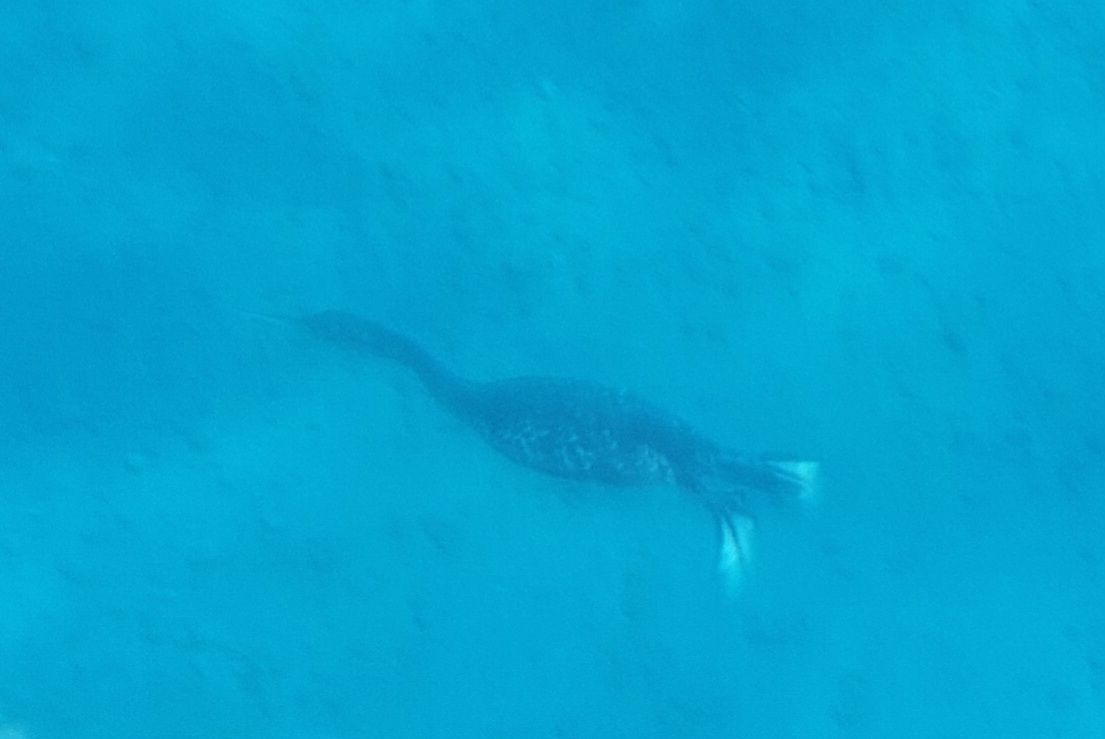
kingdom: Animalia
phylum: Chordata
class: Aves
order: Suliformes
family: Phalacrocoracidae
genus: Phalacrocorax
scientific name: Phalacrocorax aristotelis
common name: European shag
